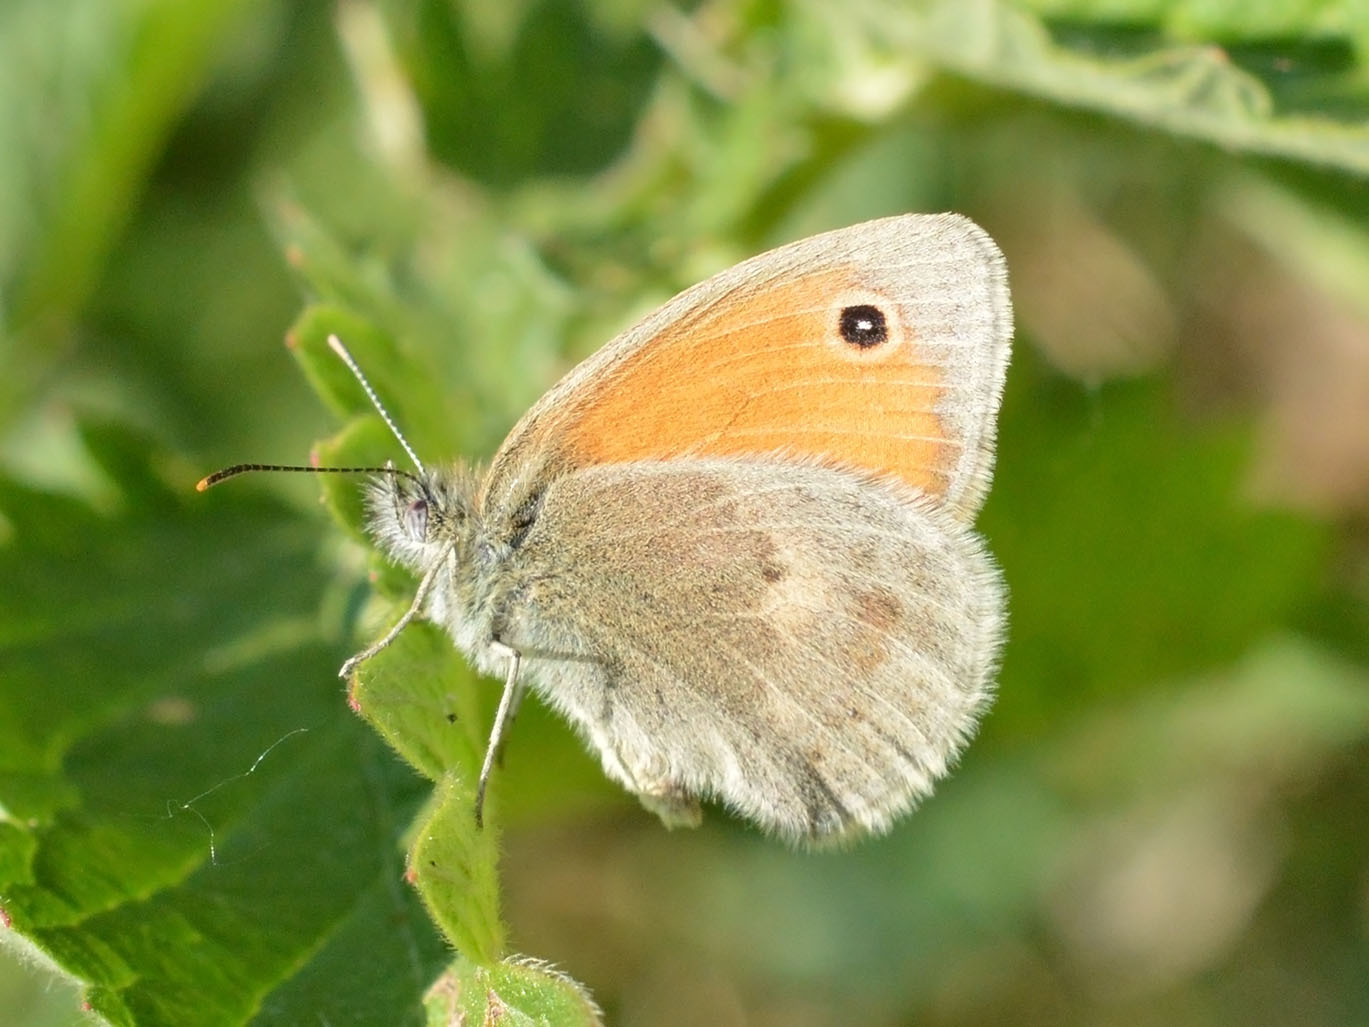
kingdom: Animalia
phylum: Arthropoda
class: Insecta
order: Lepidoptera
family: Nymphalidae
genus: Coenonympha
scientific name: Coenonympha pamphilus
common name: Small heath
